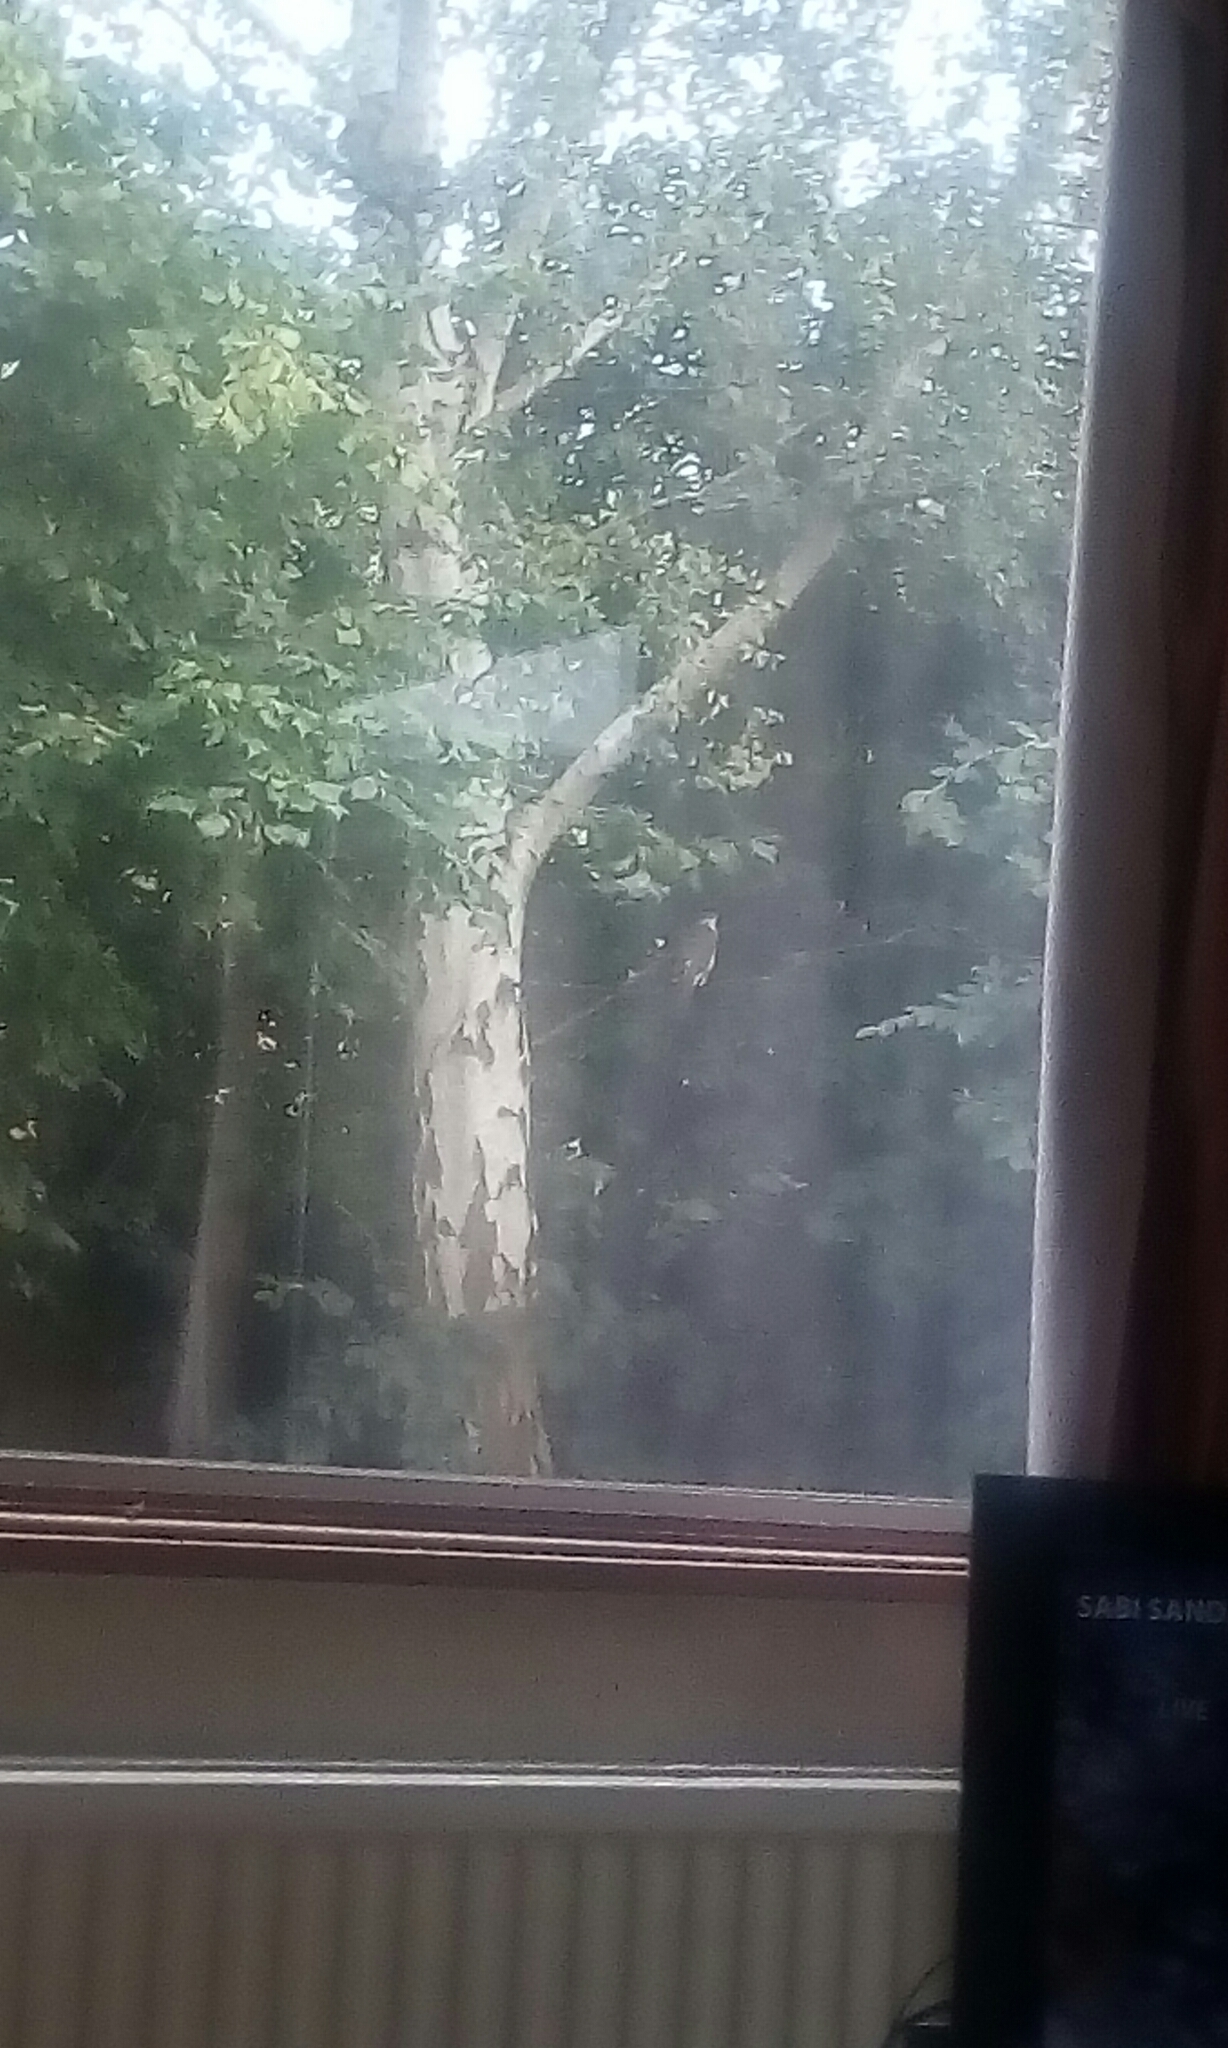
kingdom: Animalia
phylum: Chordata
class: Aves
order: Accipitriformes
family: Accipitridae
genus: Accipiter
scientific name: Accipiter nisus
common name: Eurasian sparrowhawk
